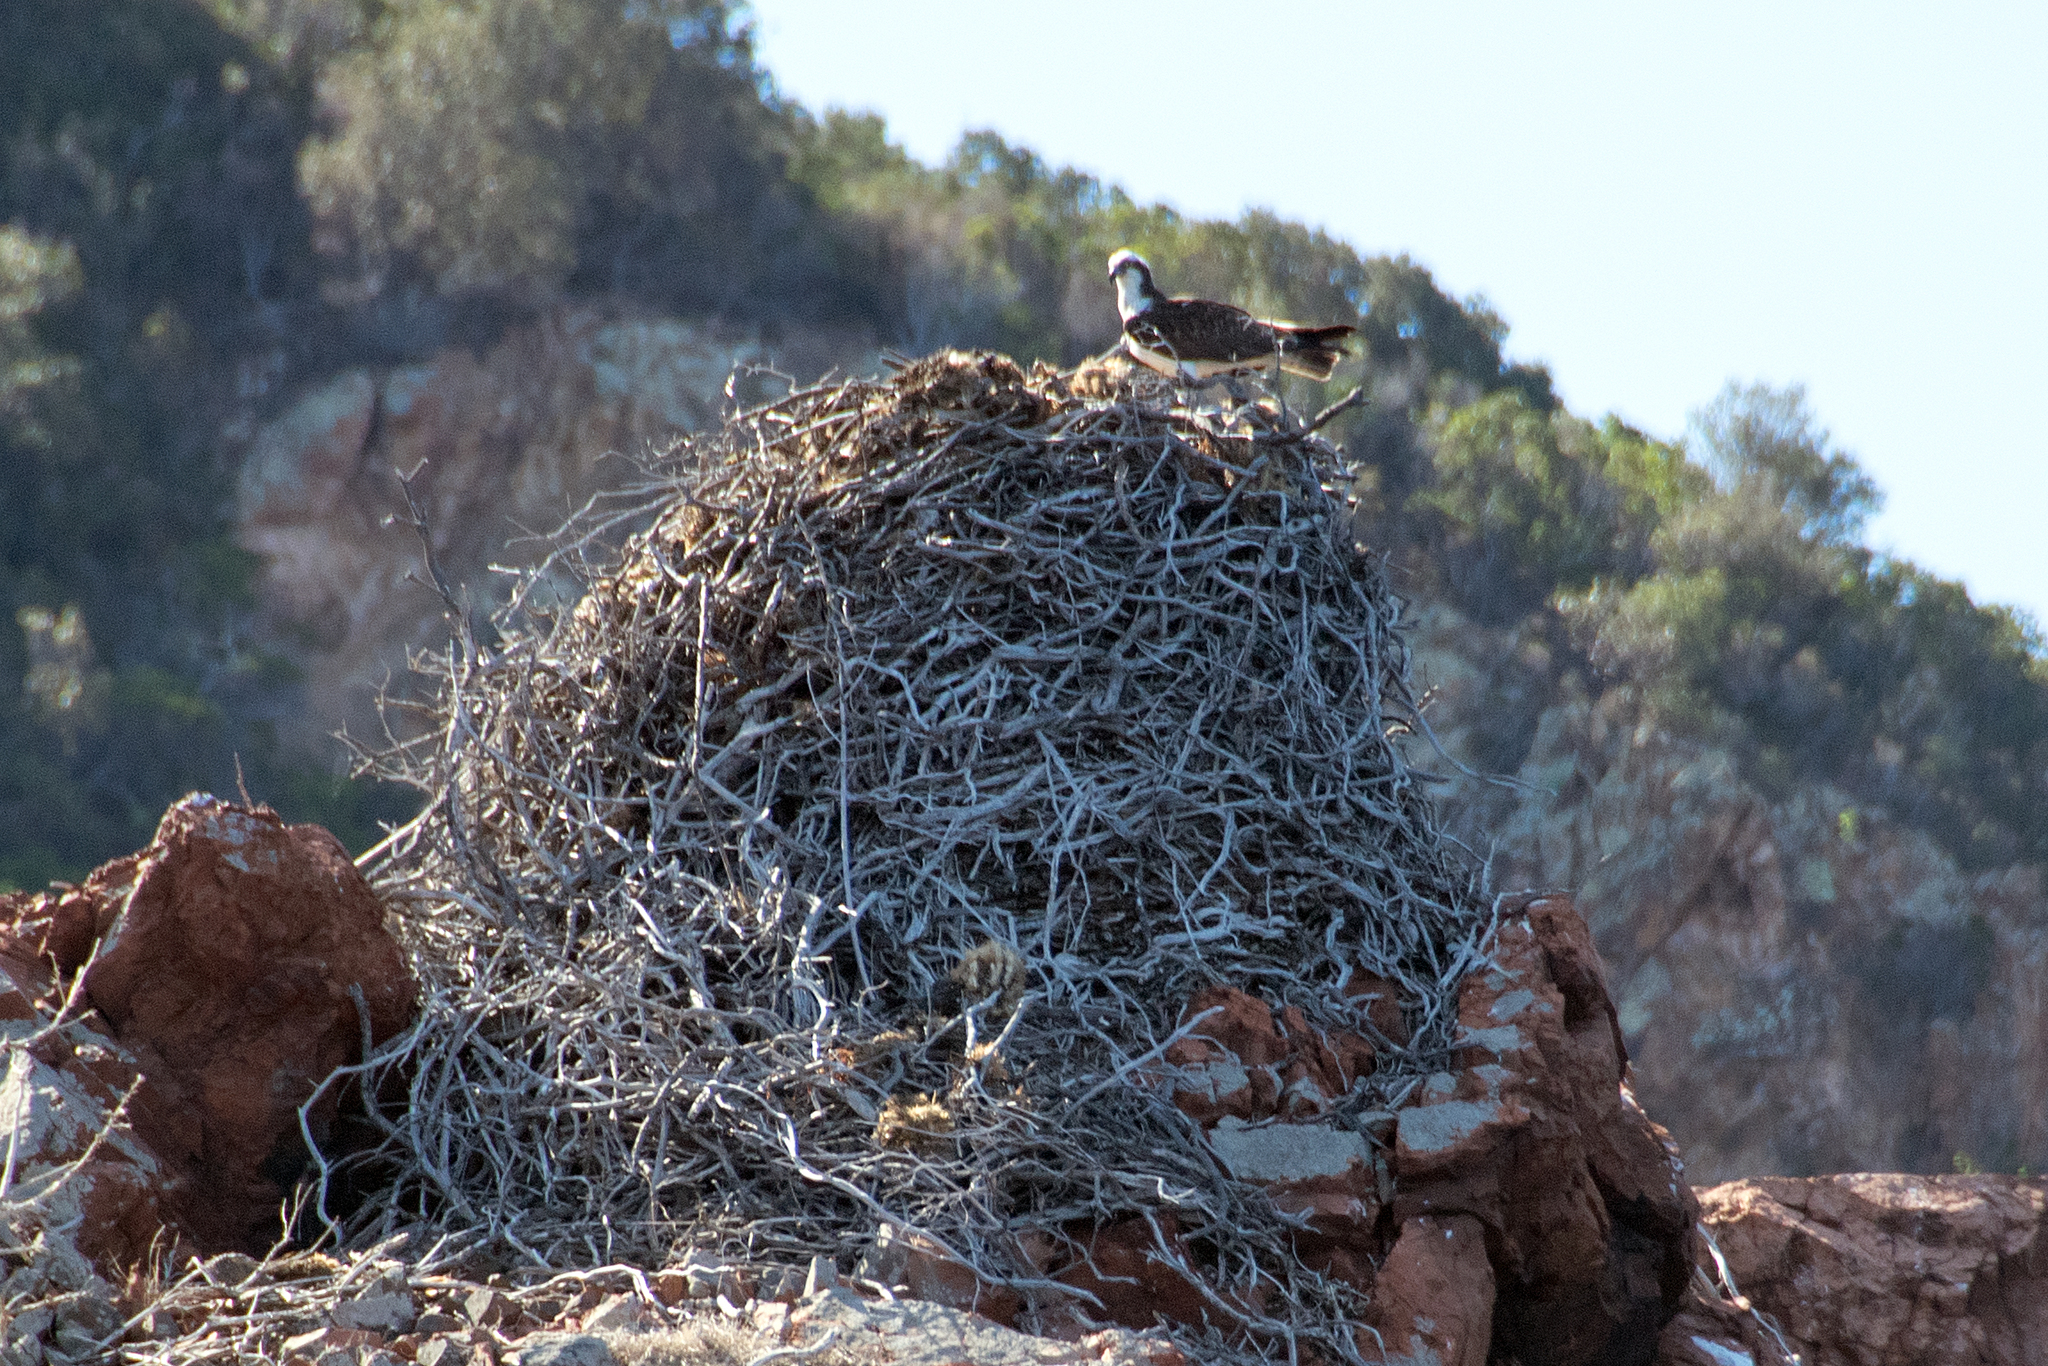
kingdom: Animalia
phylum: Chordata
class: Aves
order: Accipitriformes
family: Pandionidae
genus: Pandion
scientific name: Pandion haliaetus
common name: Osprey
